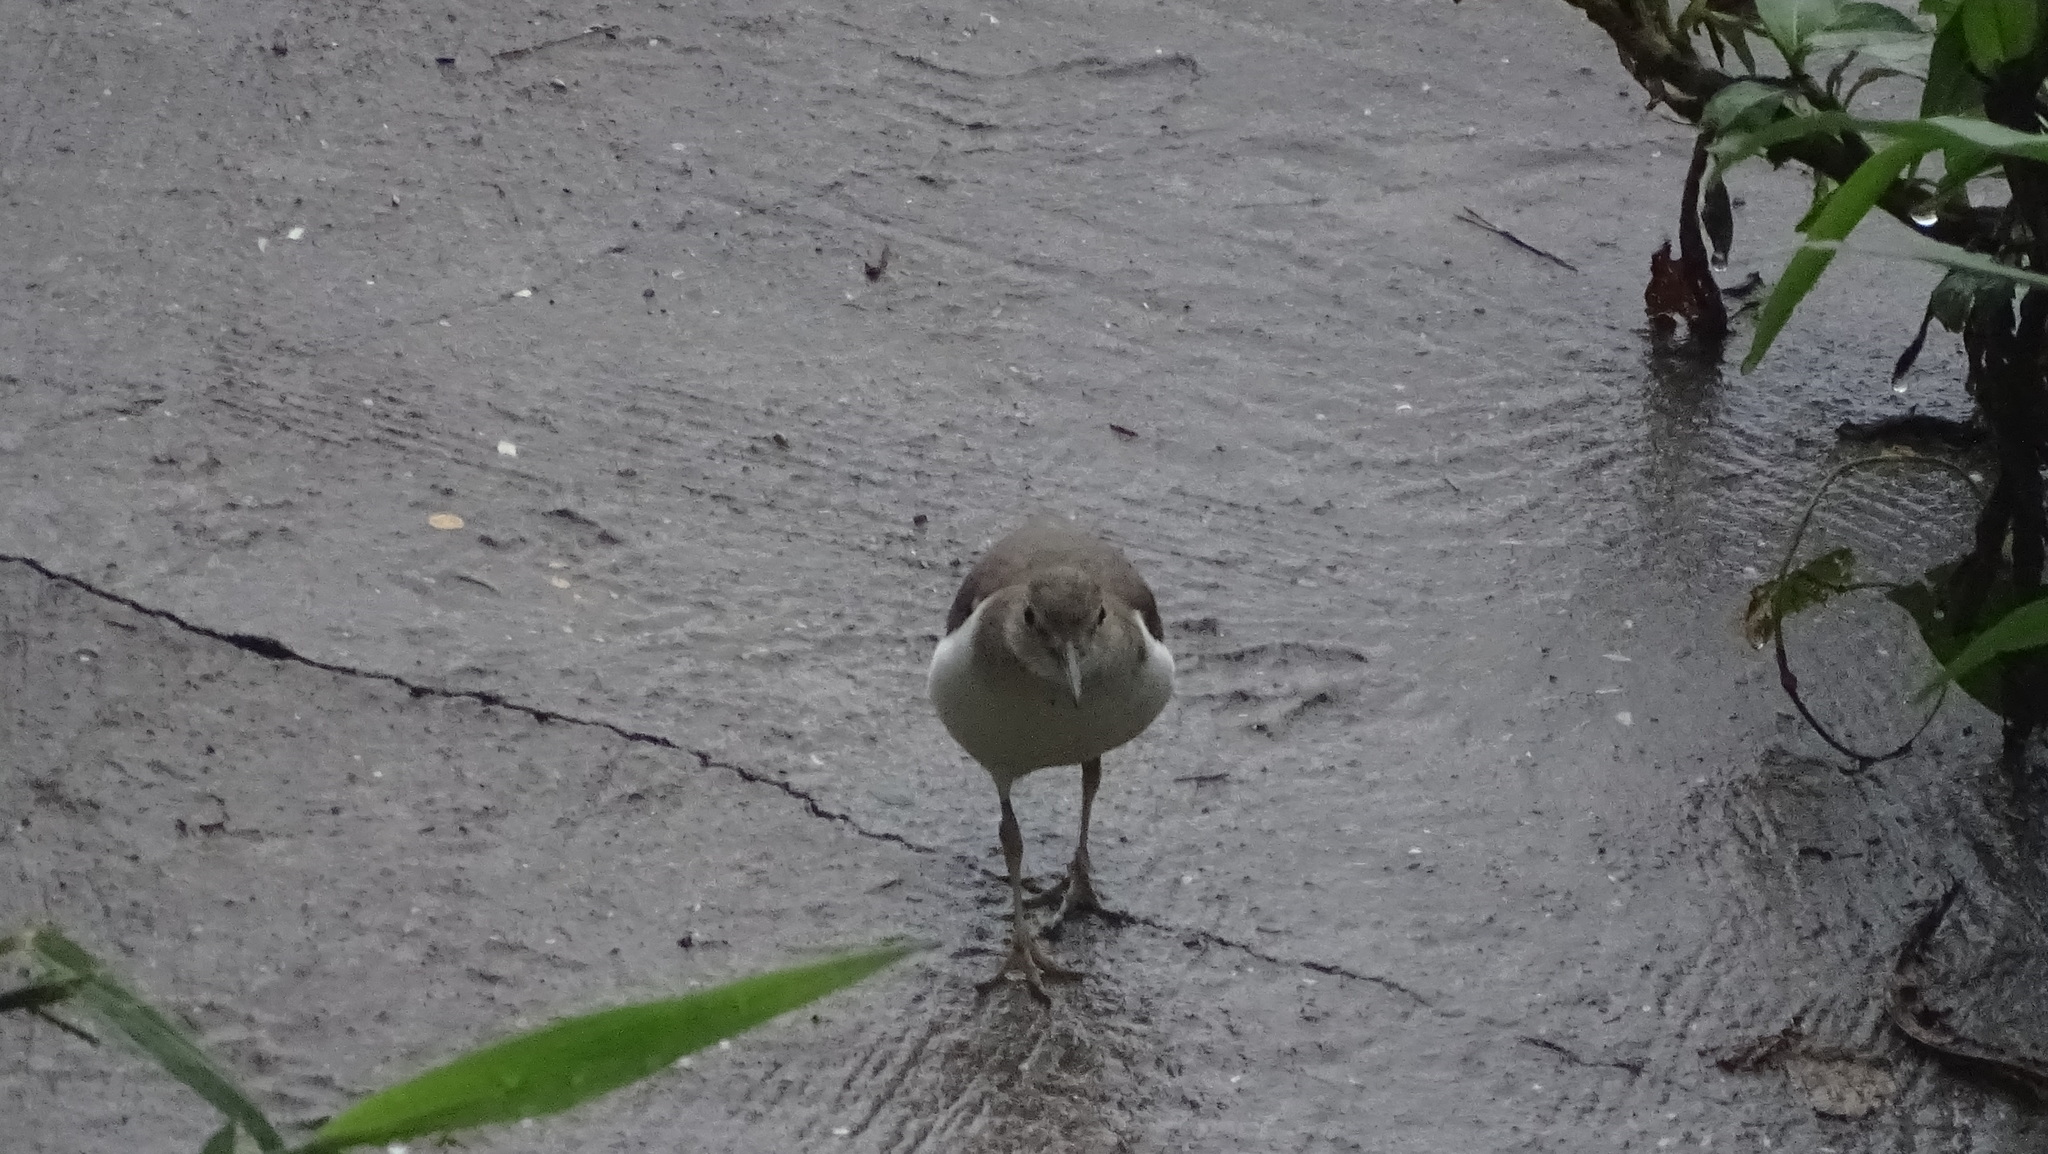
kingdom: Animalia
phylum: Chordata
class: Aves
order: Charadriiformes
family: Scolopacidae
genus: Actitis
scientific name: Actitis macularius
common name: Spotted sandpiper
